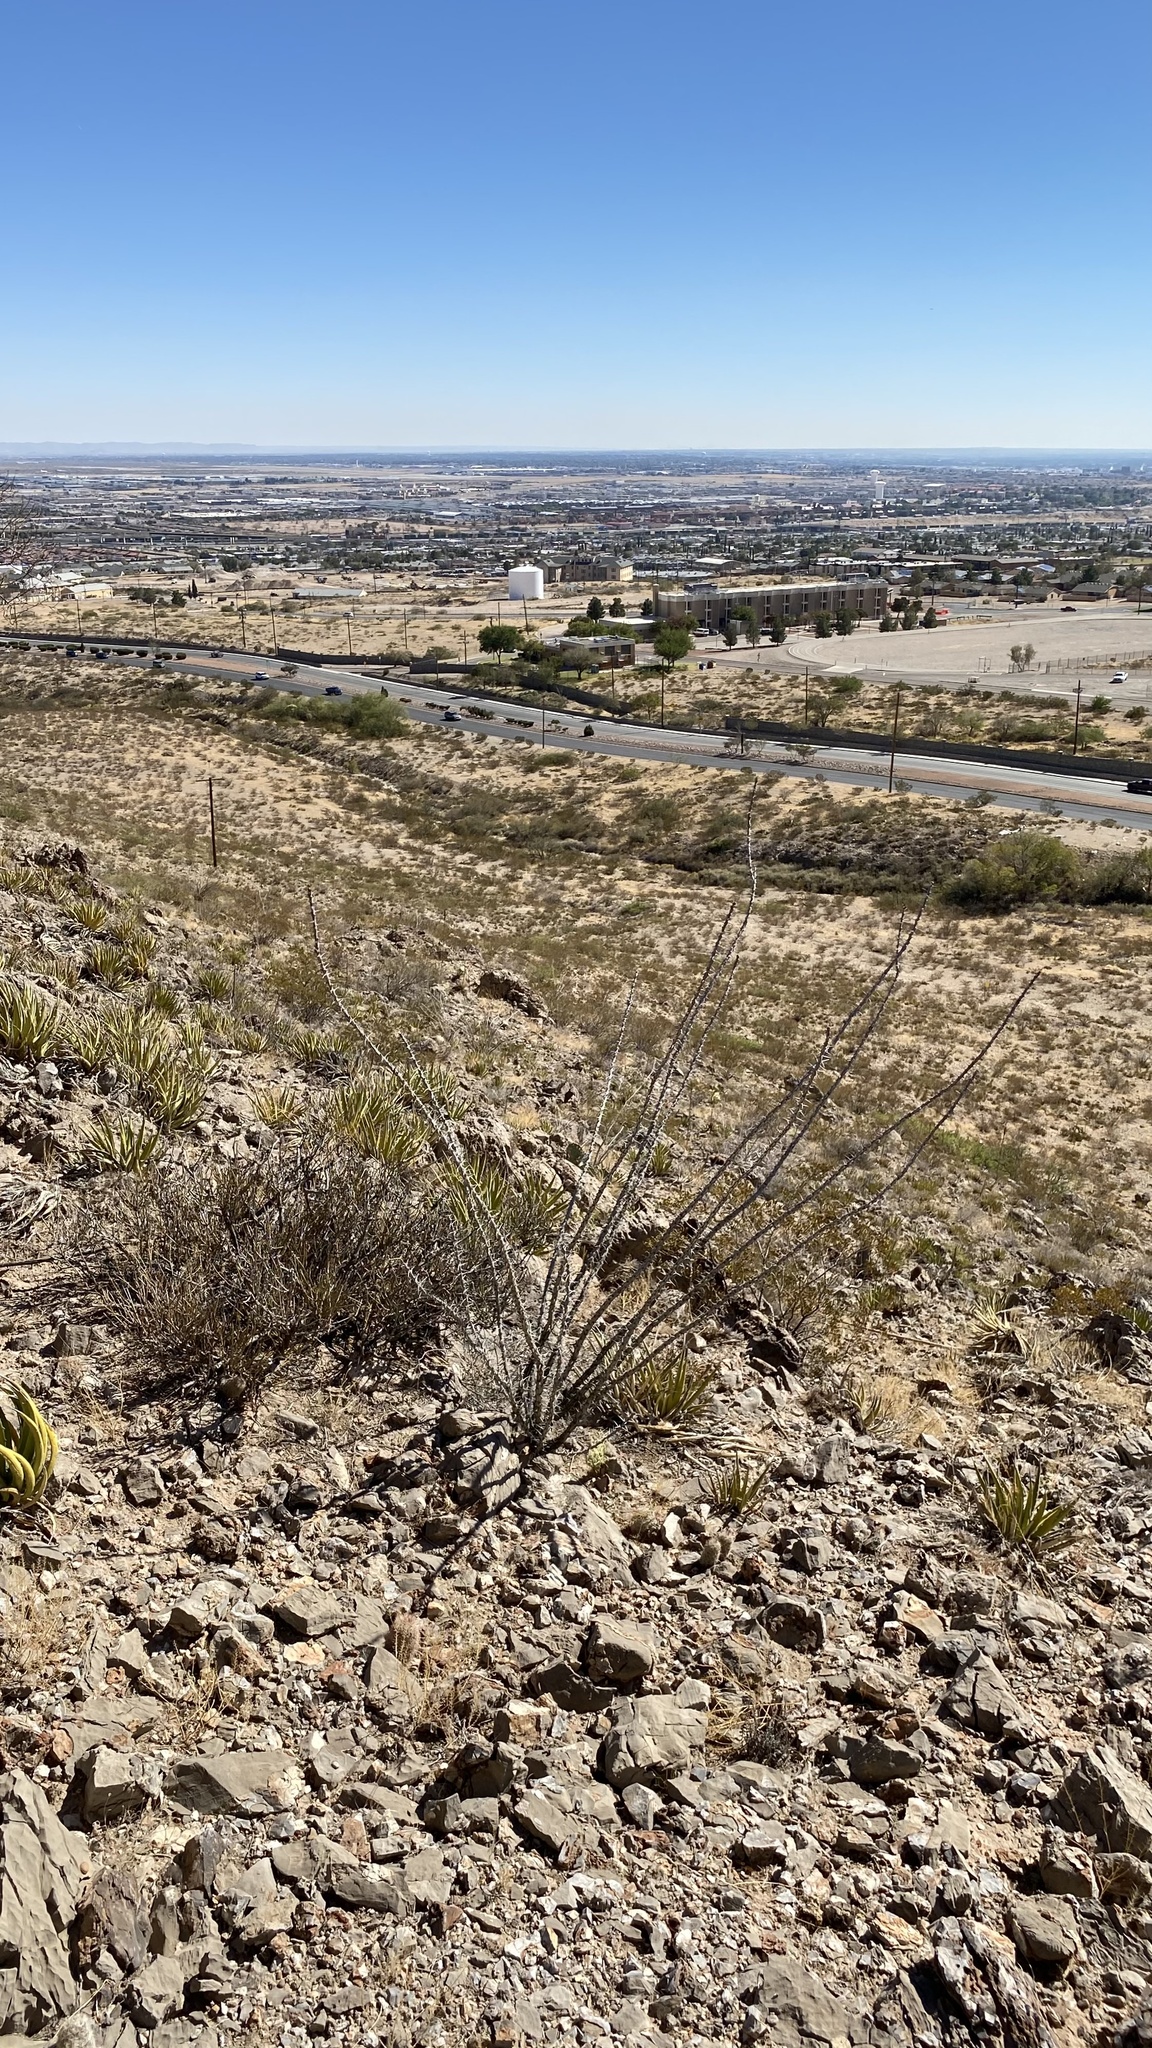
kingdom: Plantae
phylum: Tracheophyta
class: Magnoliopsida
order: Ericales
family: Fouquieriaceae
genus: Fouquieria
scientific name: Fouquieria splendens
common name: Vine-cactus
